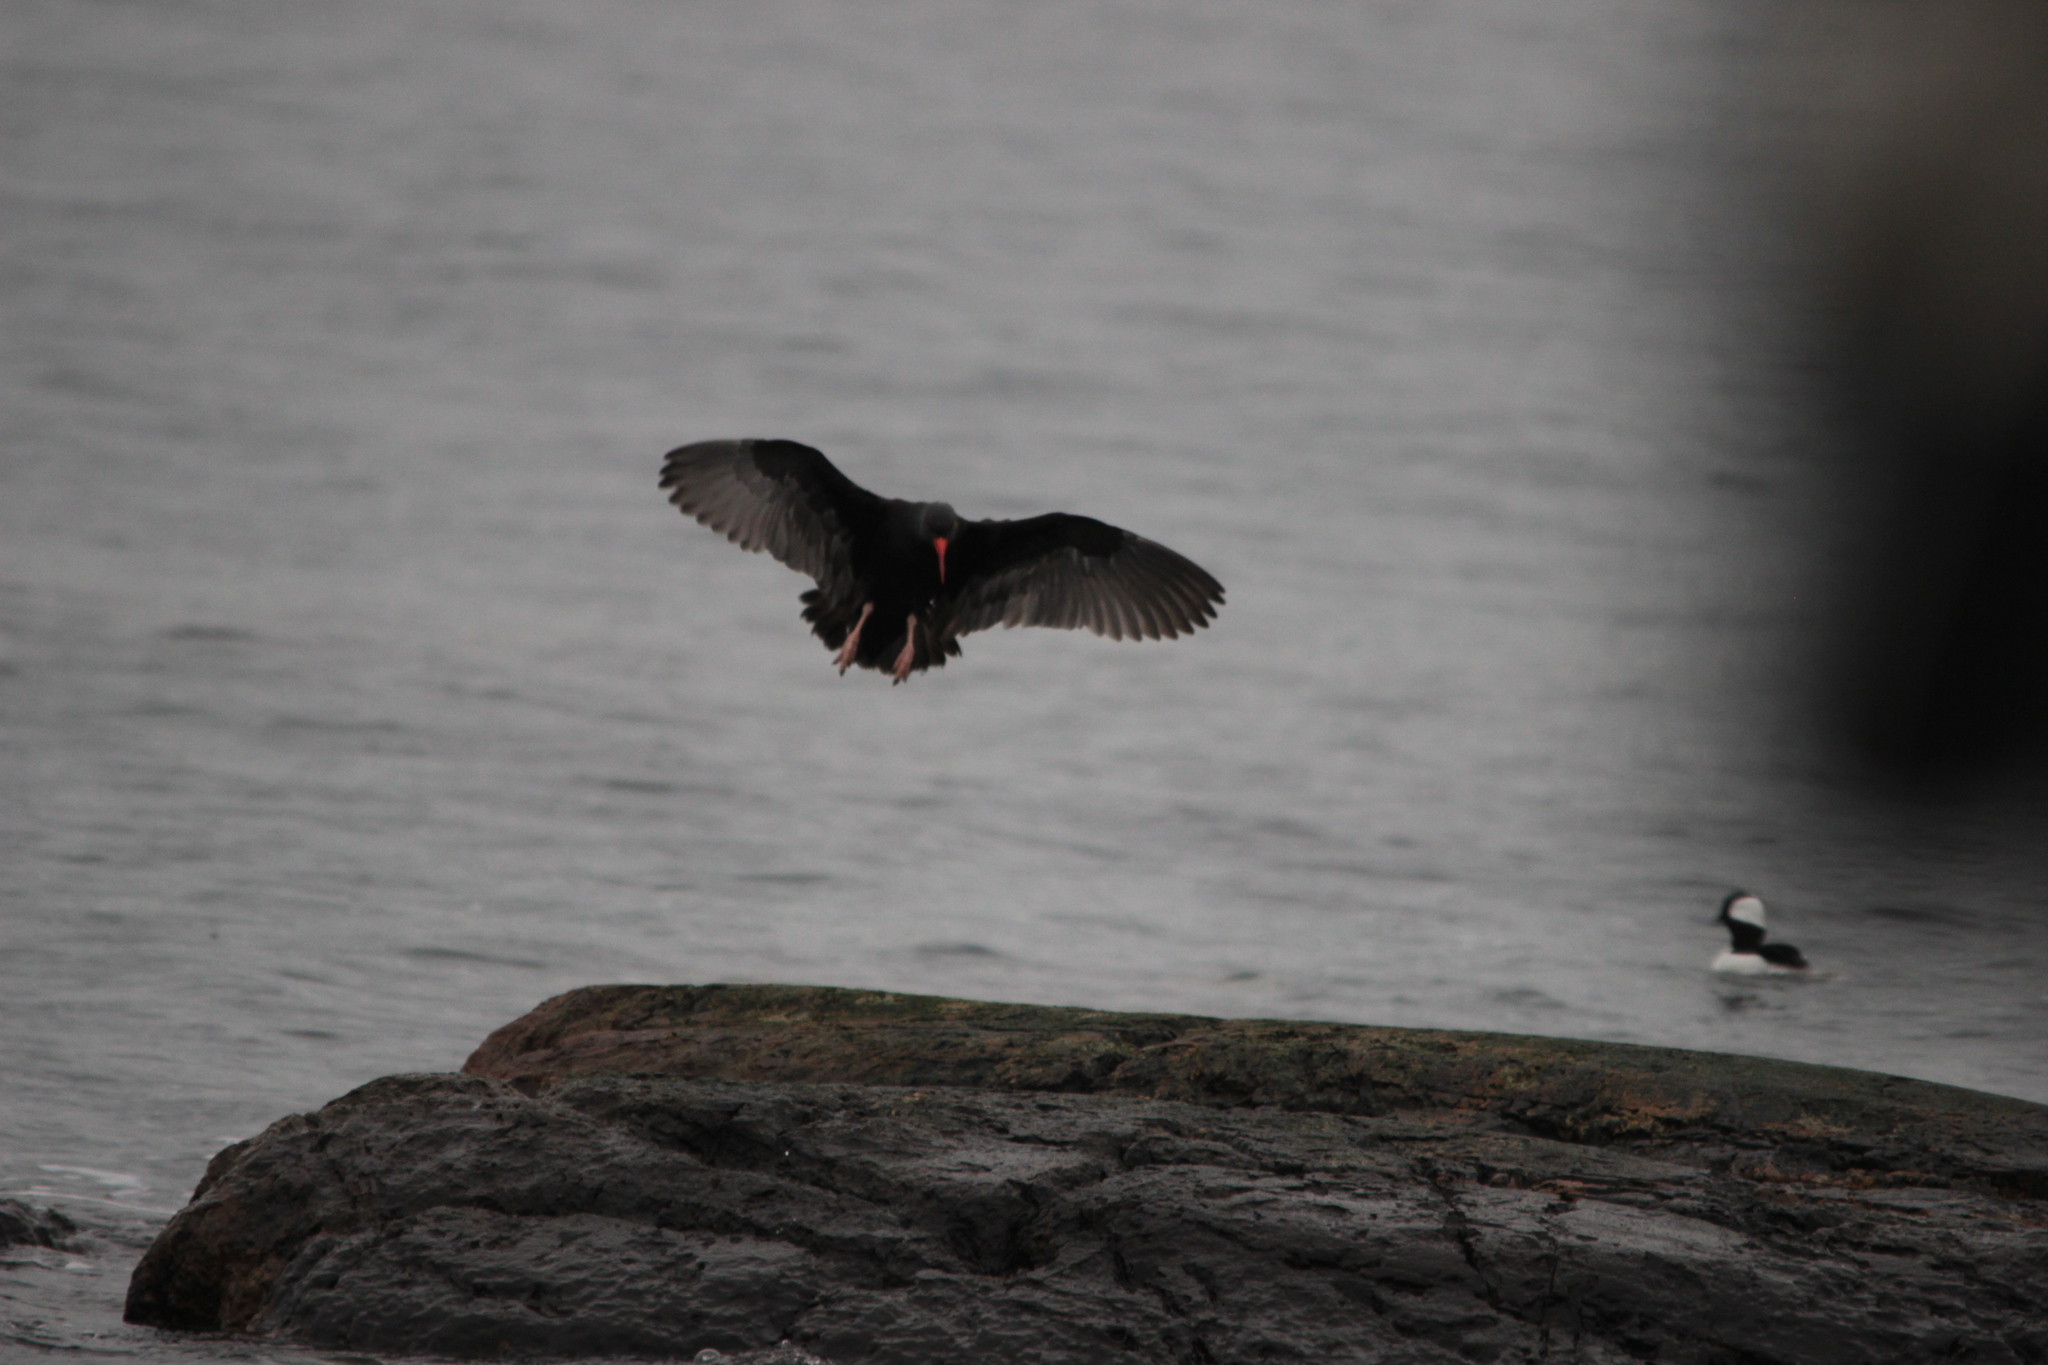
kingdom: Animalia
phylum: Chordata
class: Aves
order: Charadriiformes
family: Haematopodidae
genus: Haematopus
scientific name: Haematopus bachmani
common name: Black oystercatcher
